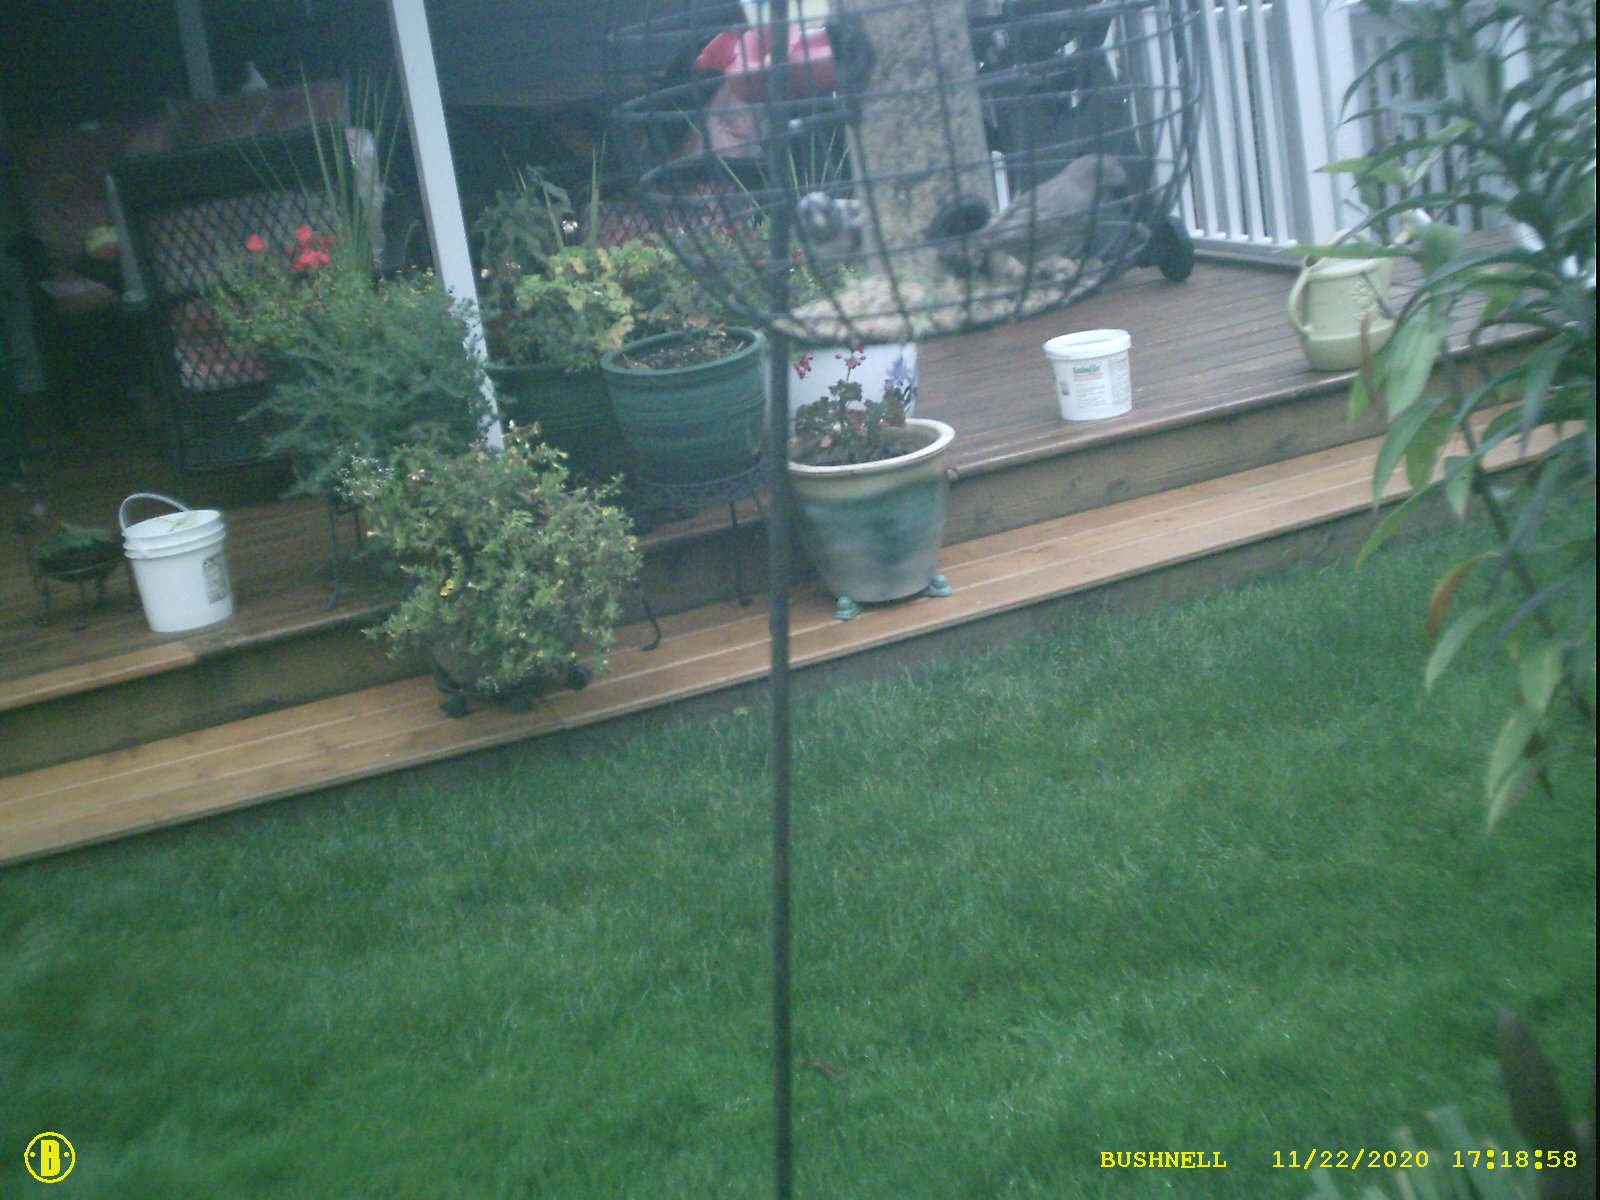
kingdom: Animalia
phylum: Chordata
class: Aves
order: Passeriformes
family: Passerellidae
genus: Junco
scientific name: Junco hyemalis
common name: Dark-eyed junco
